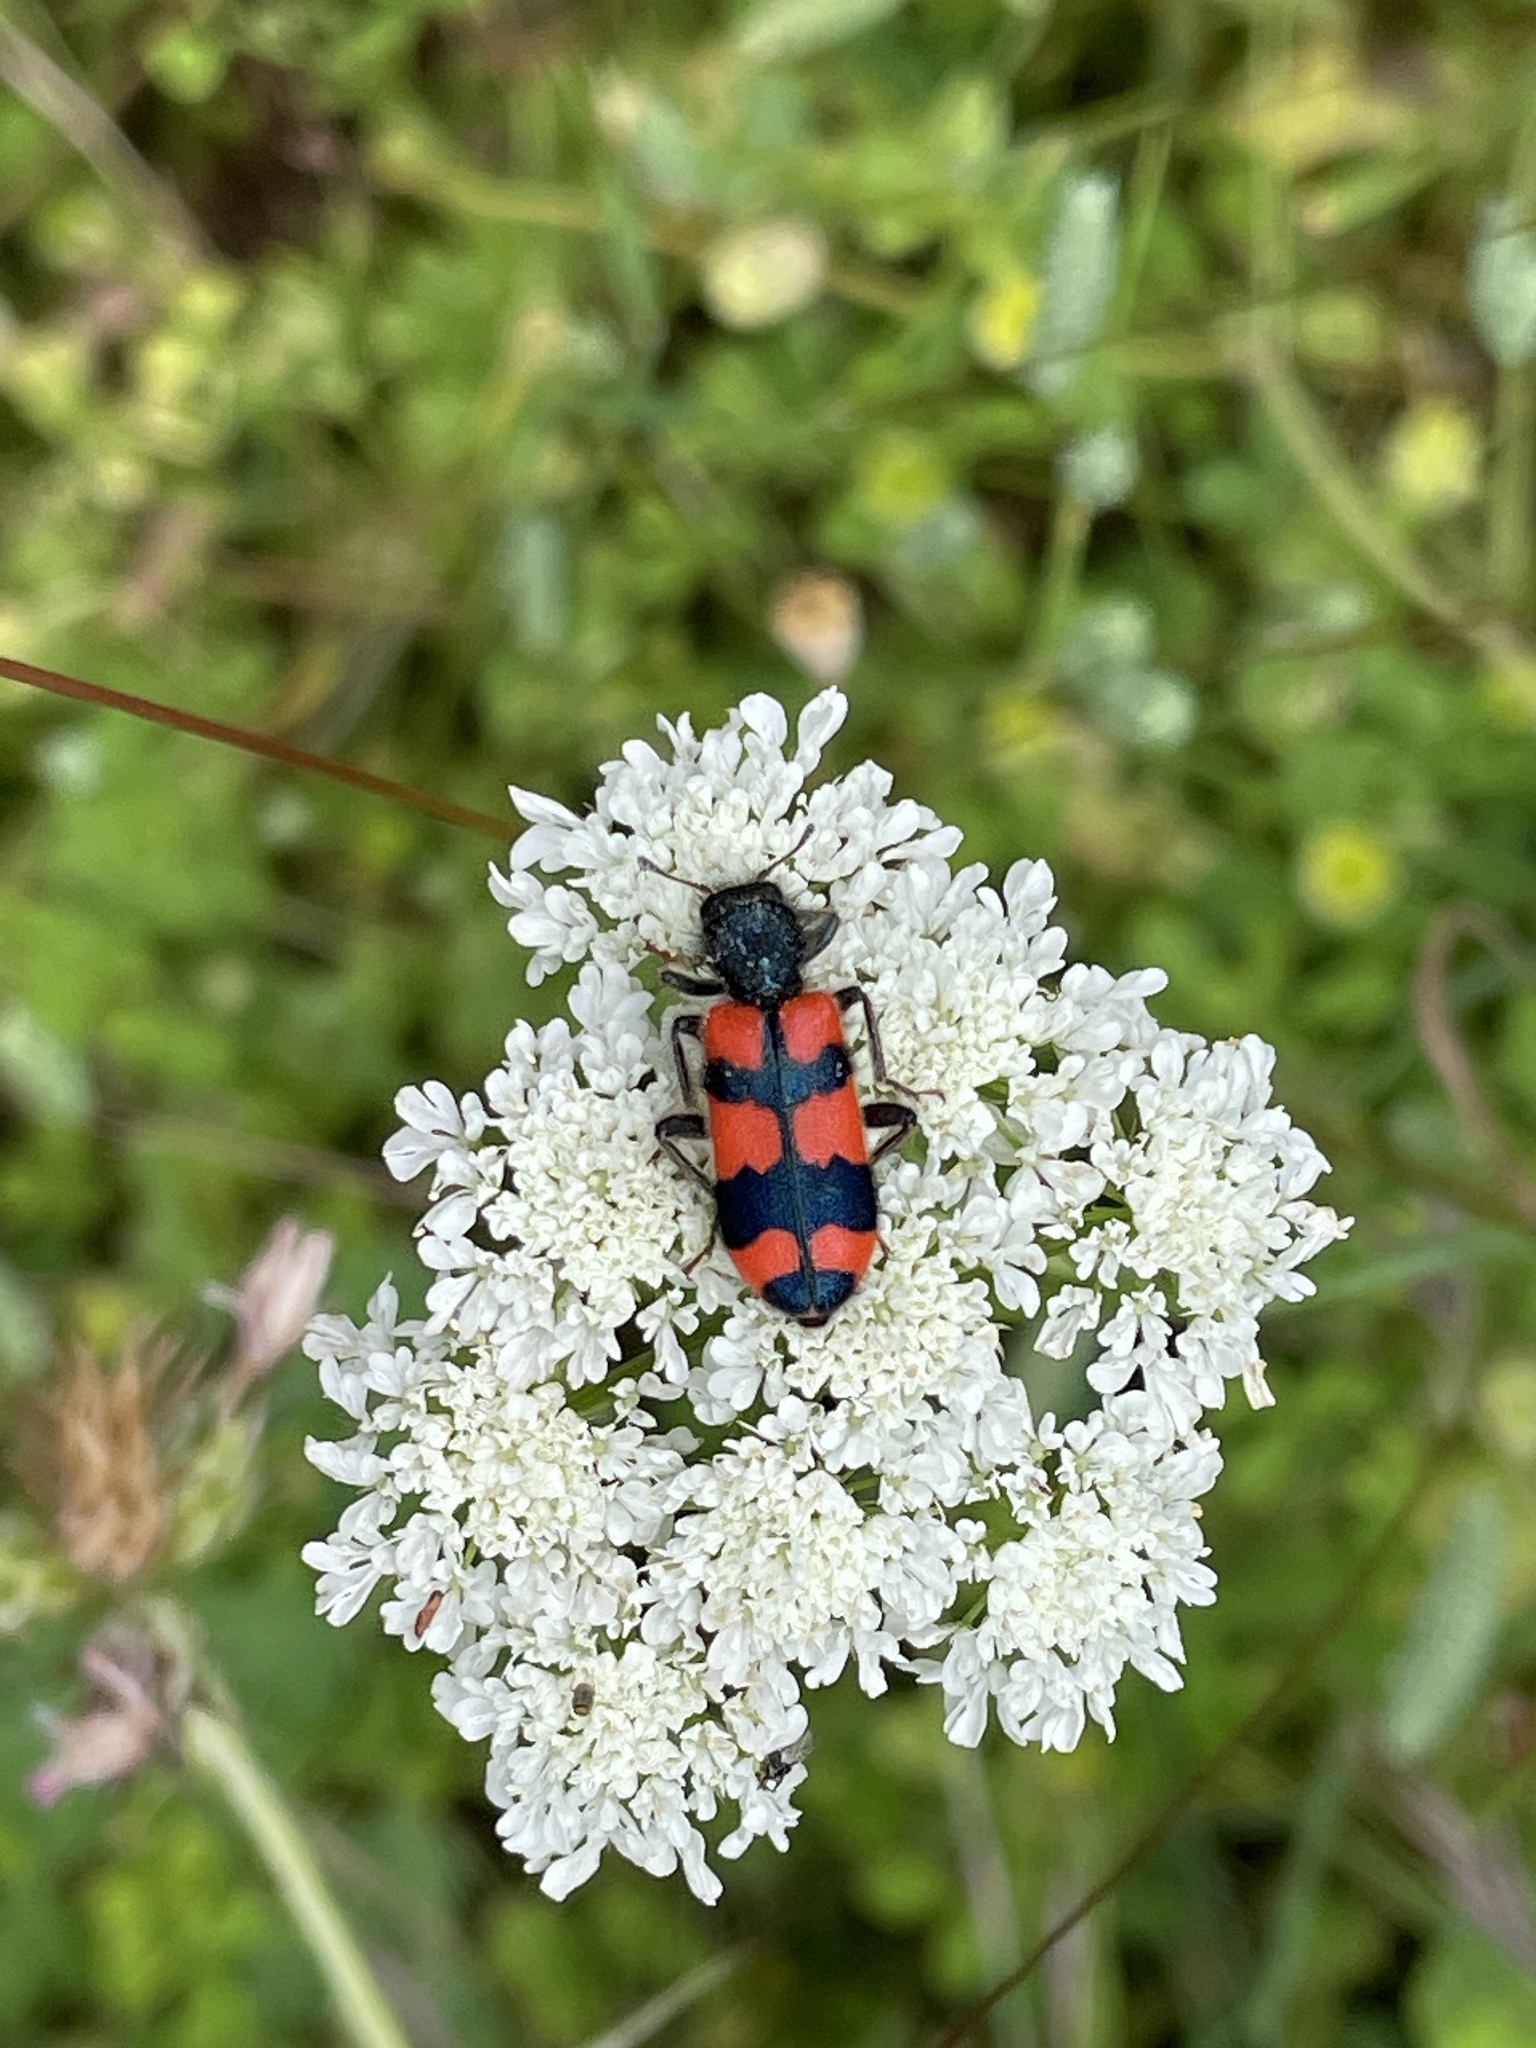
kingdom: Animalia
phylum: Arthropoda
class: Insecta
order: Coleoptera
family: Cleridae
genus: Trichodes
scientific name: Trichodes favarius
